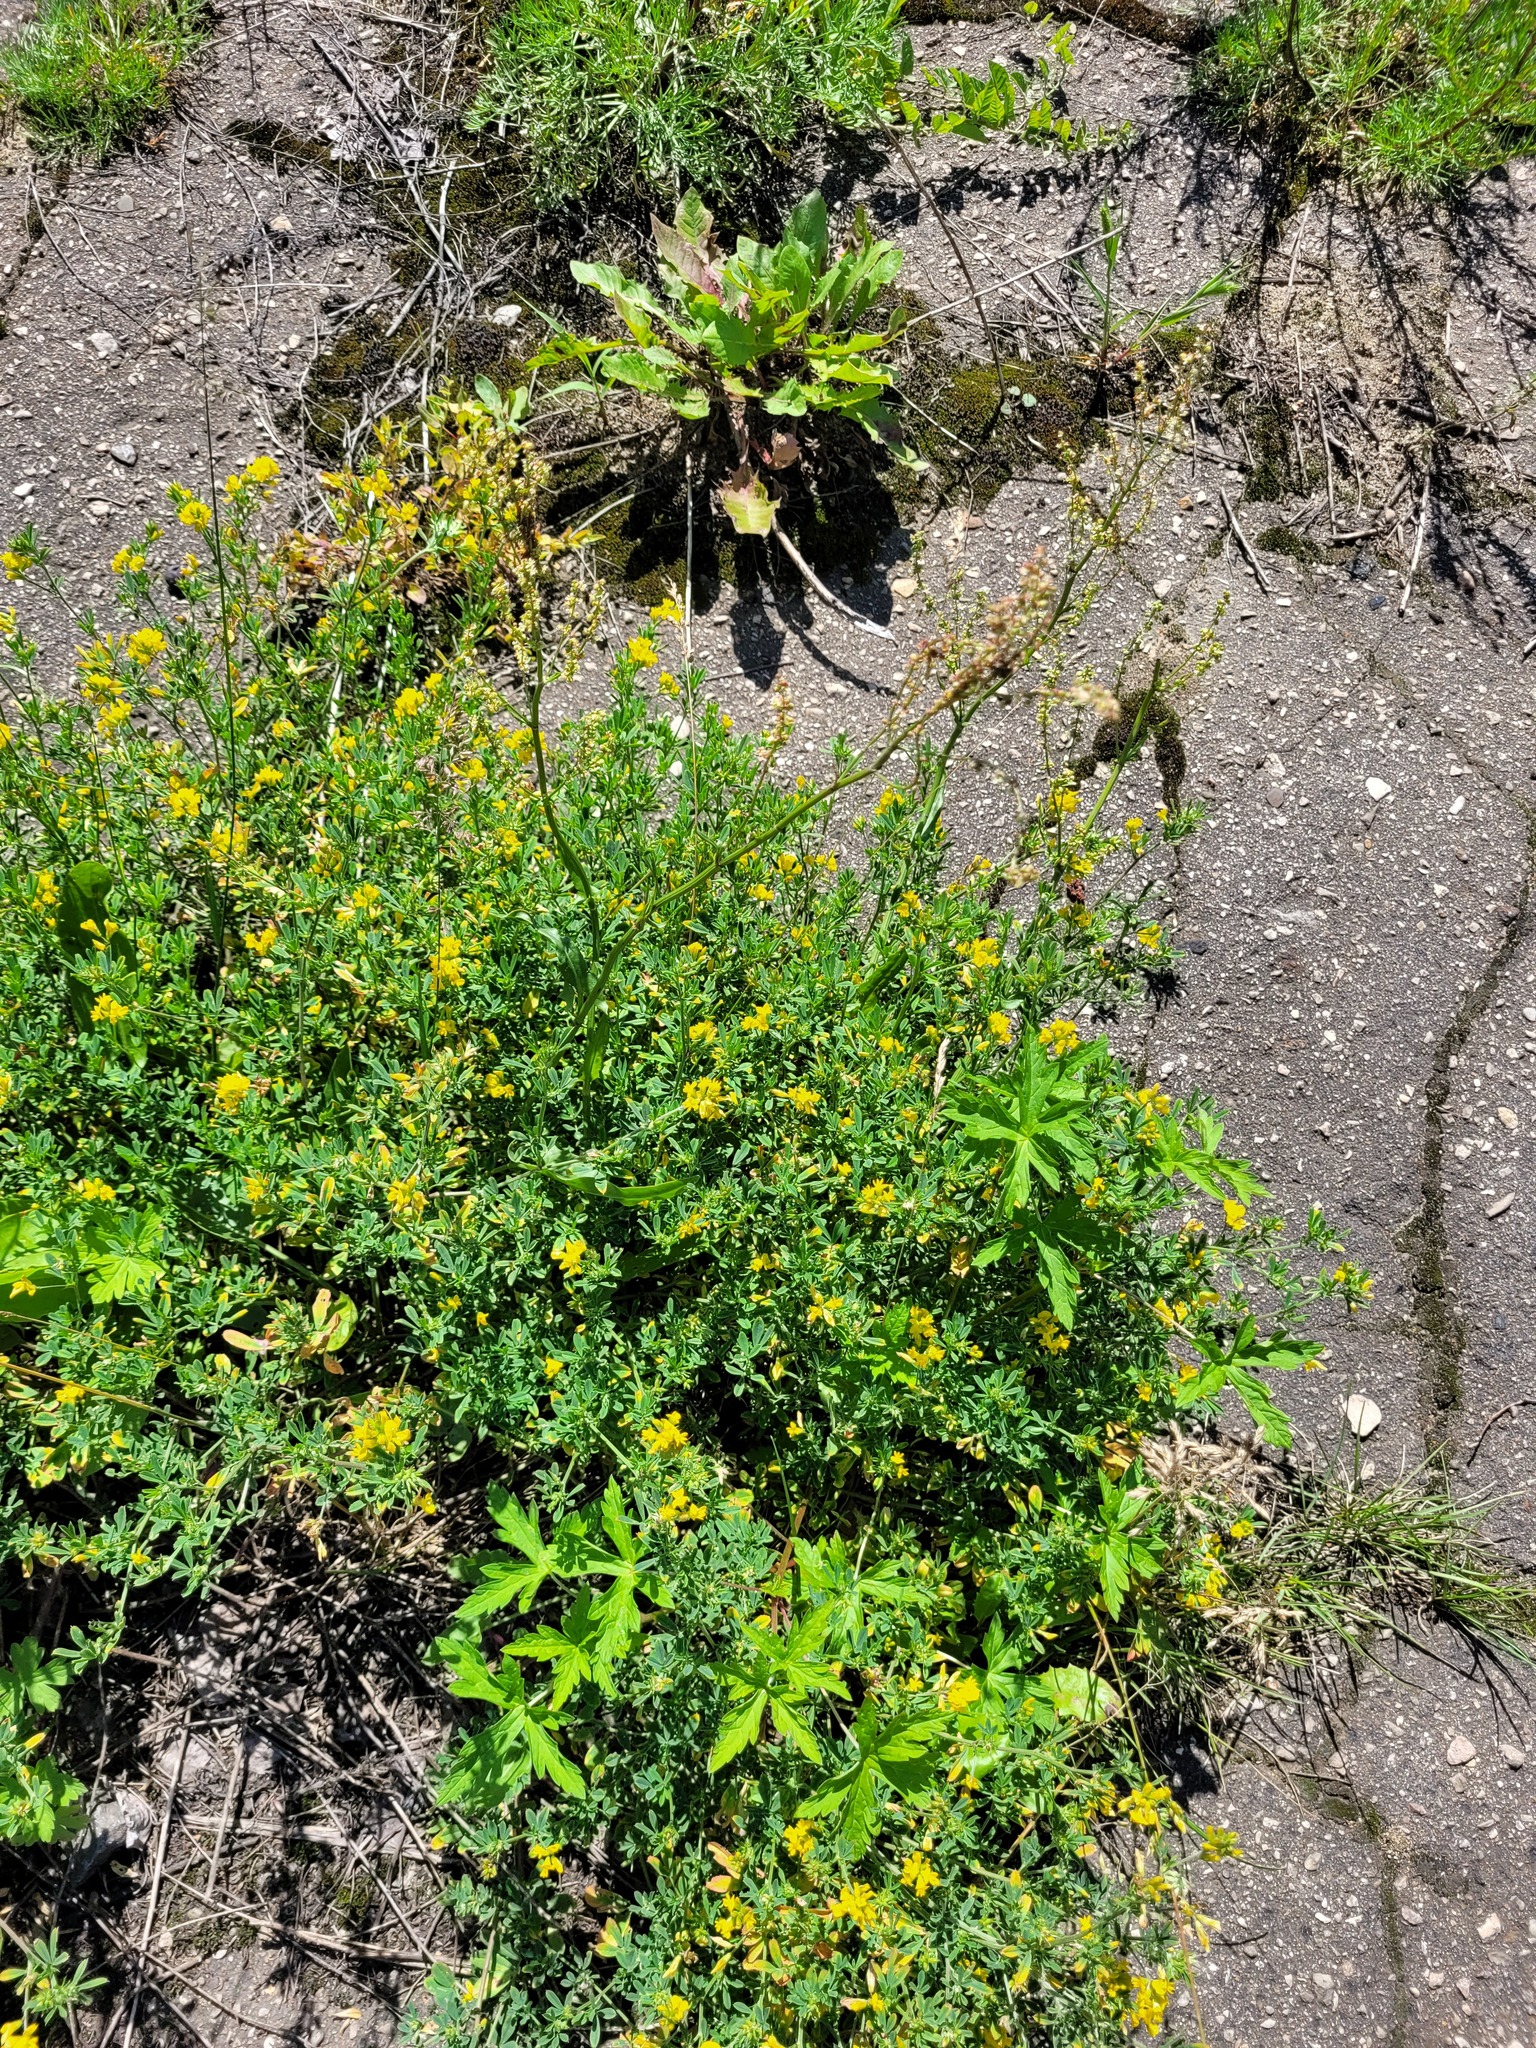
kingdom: Plantae
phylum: Tracheophyta
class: Magnoliopsida
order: Fabales
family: Fabaceae
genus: Medicago
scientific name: Medicago falcata
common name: Sickle medick
